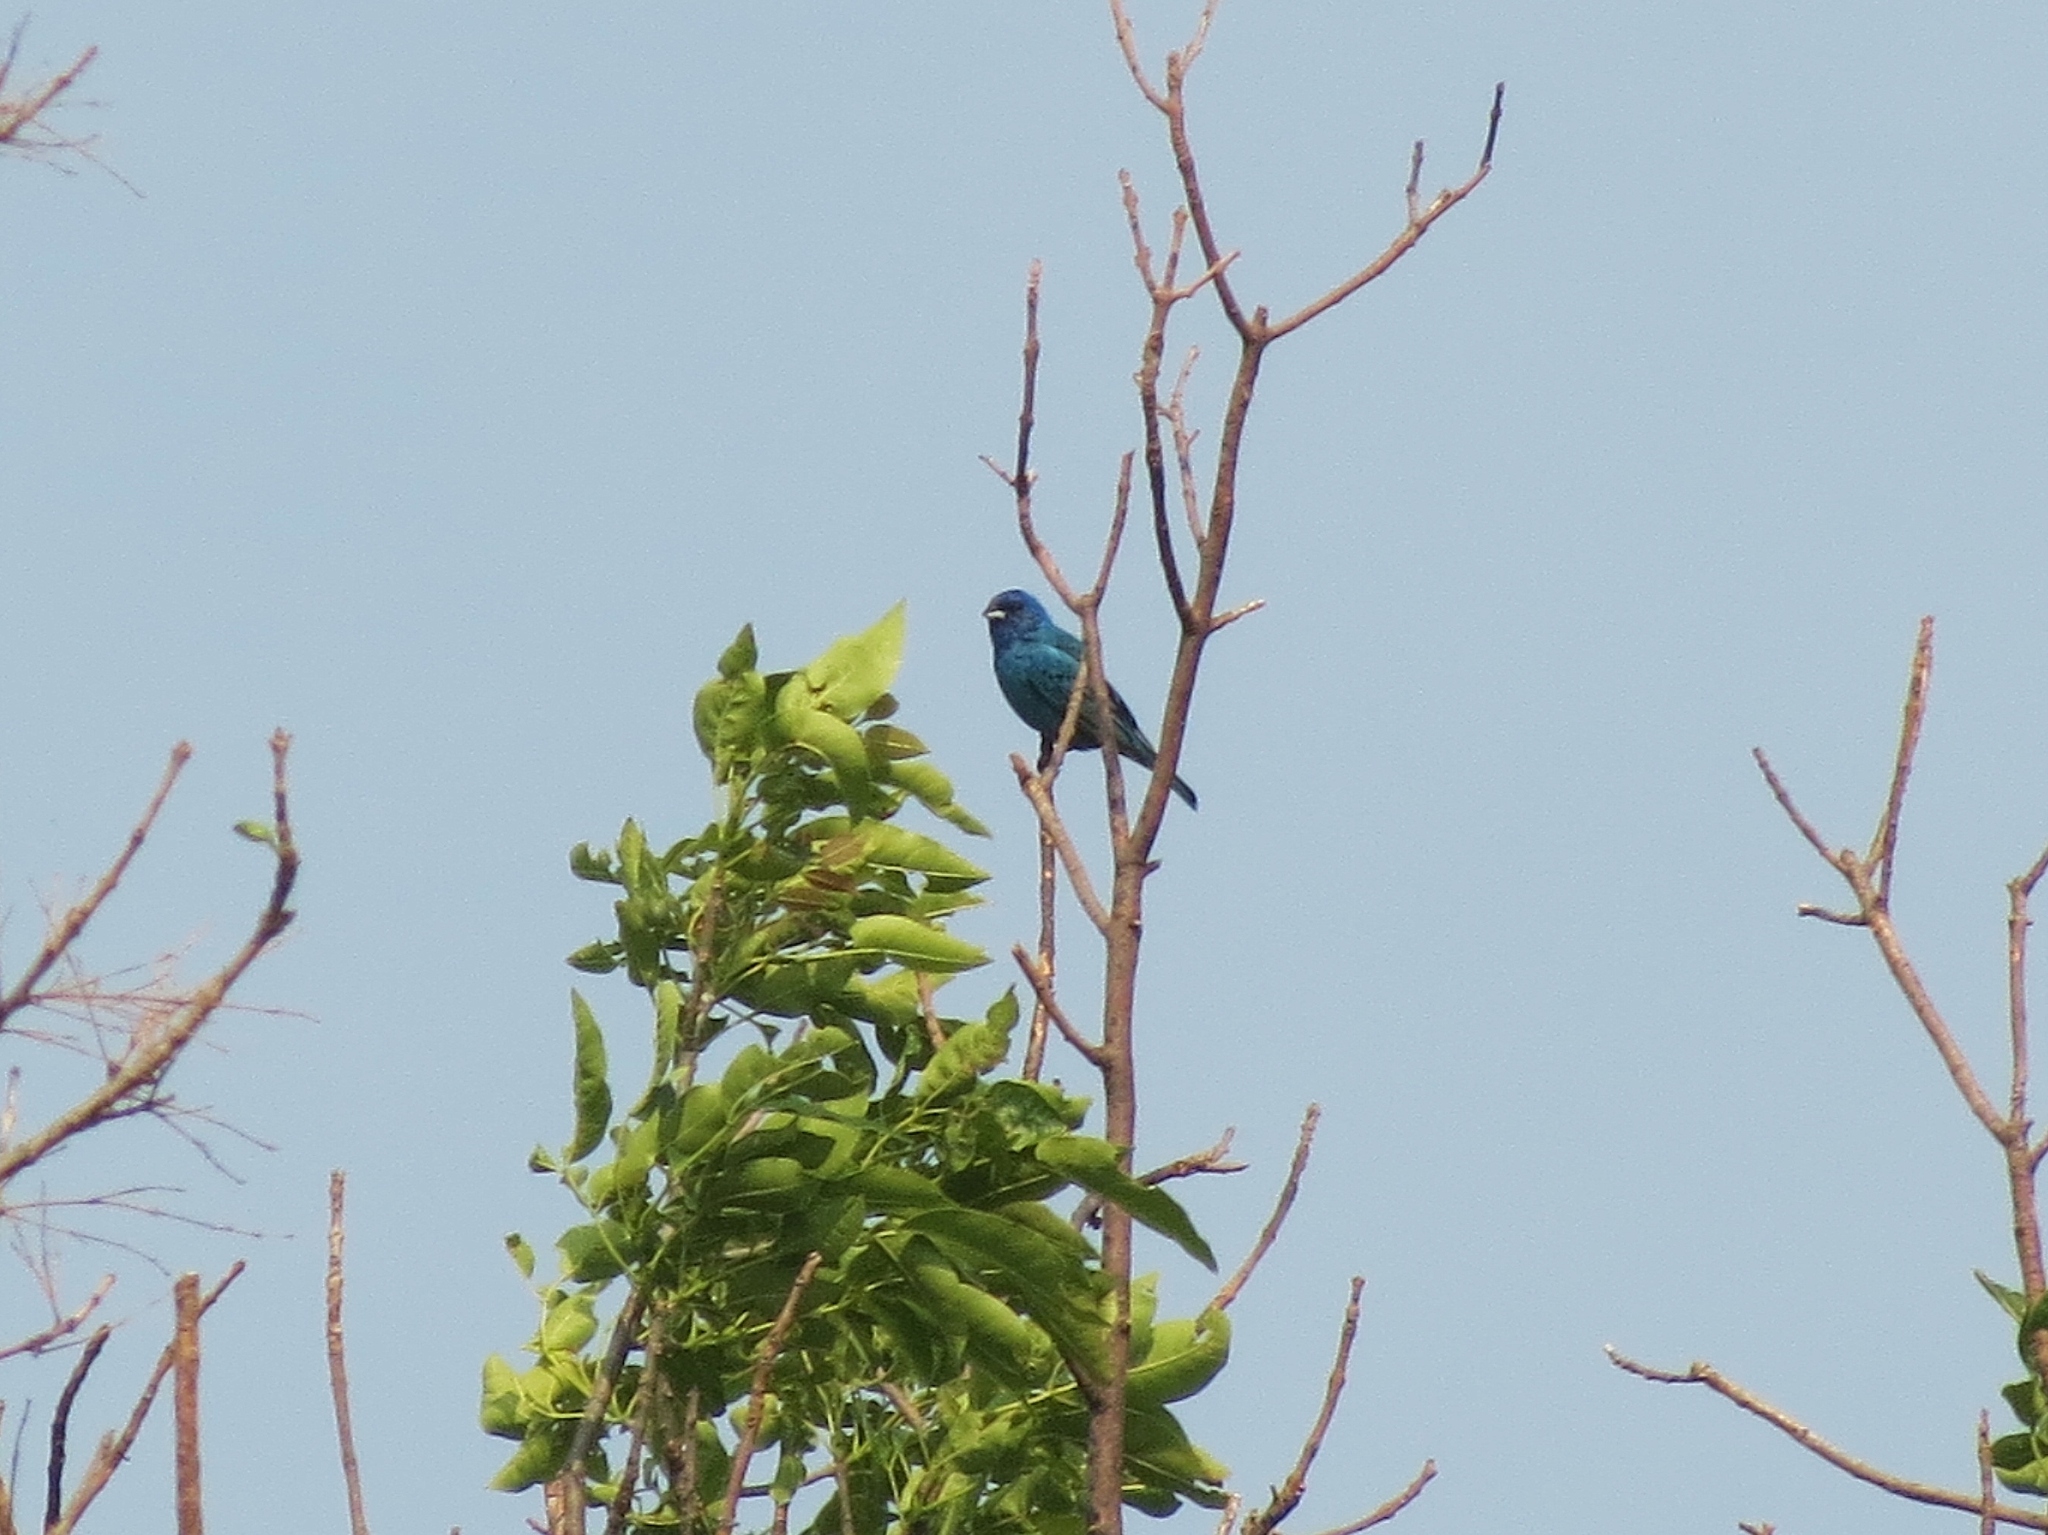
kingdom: Animalia
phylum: Chordata
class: Aves
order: Passeriformes
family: Cardinalidae
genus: Passerina
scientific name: Passerina cyanea
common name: Indigo bunting
